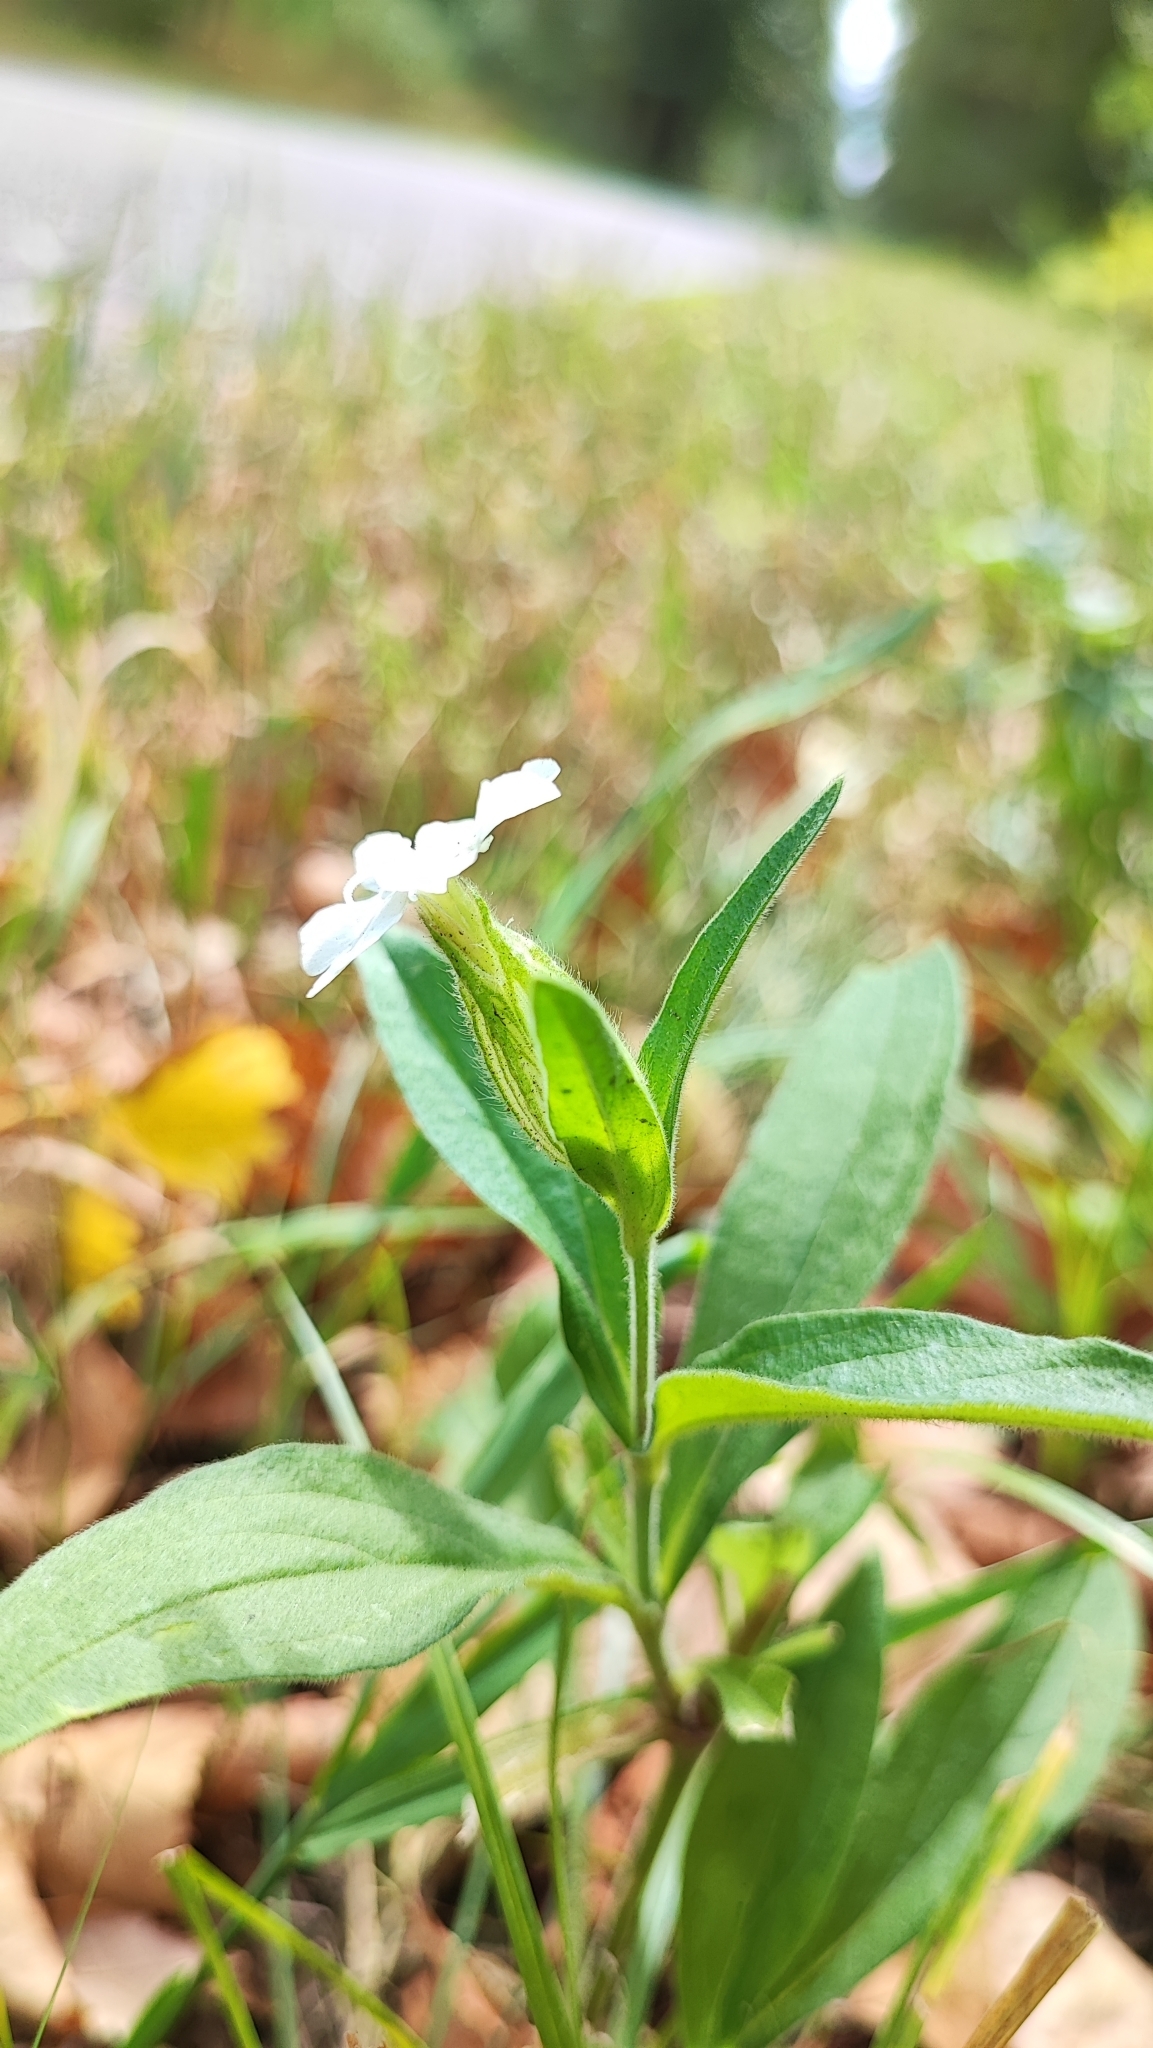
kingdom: Plantae
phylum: Tracheophyta
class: Magnoliopsida
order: Caryophyllales
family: Caryophyllaceae
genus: Silene
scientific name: Silene latifolia
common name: White campion
